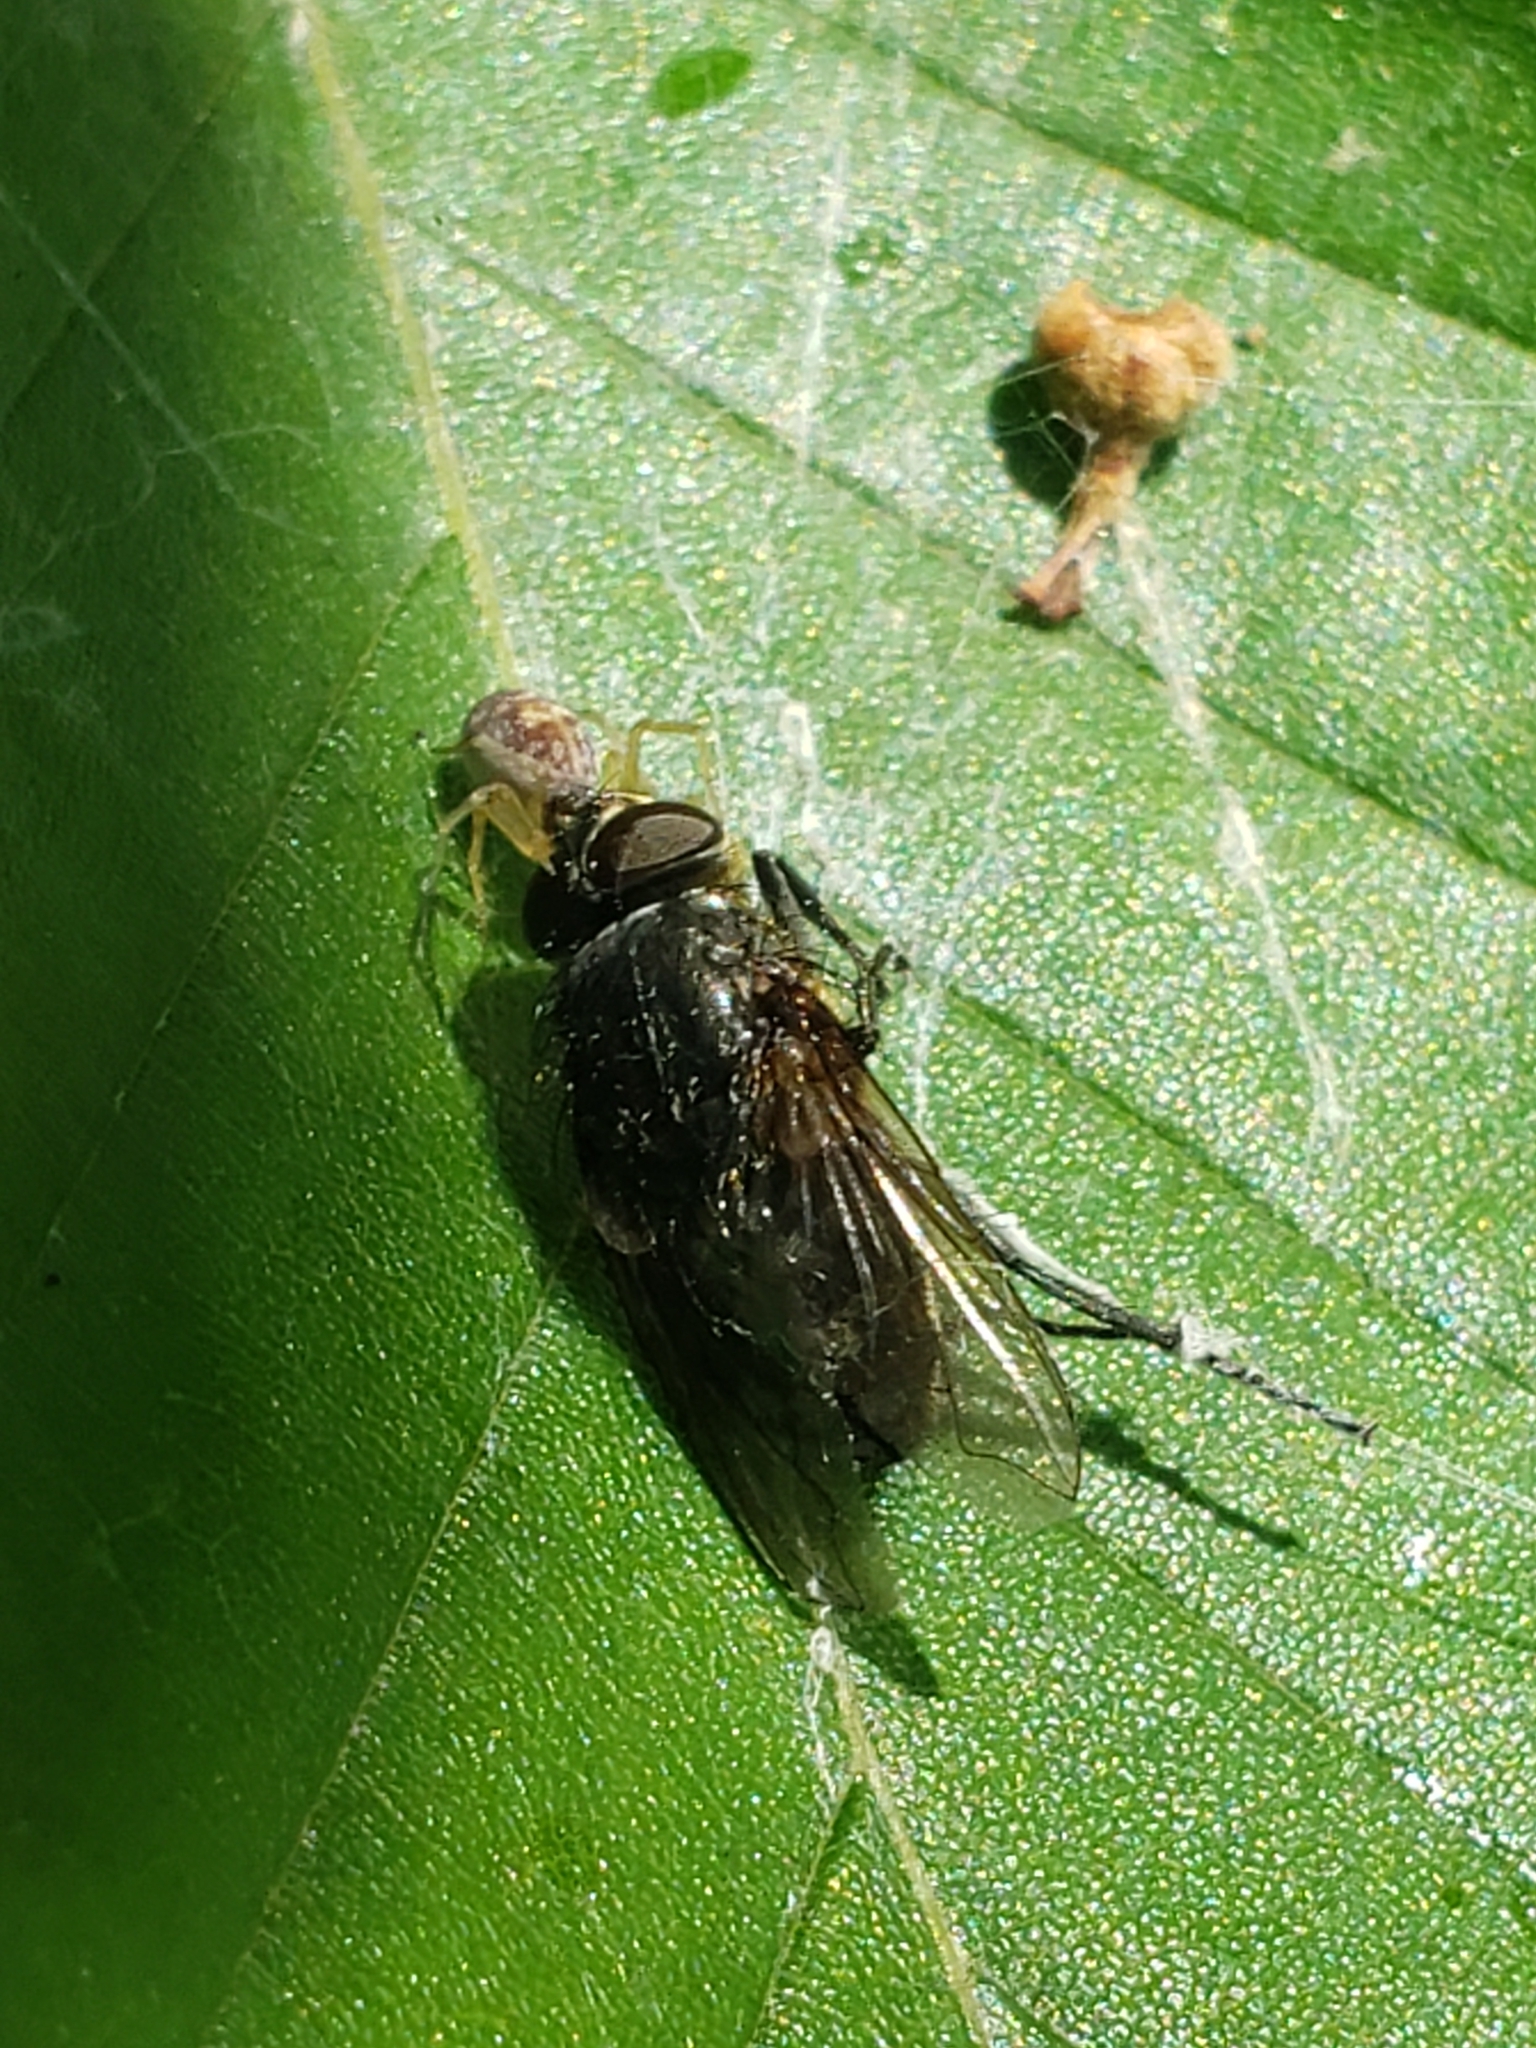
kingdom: Animalia
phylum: Arthropoda
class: Insecta
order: Diptera
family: Polleniidae
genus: Pollenia
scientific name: Pollenia
